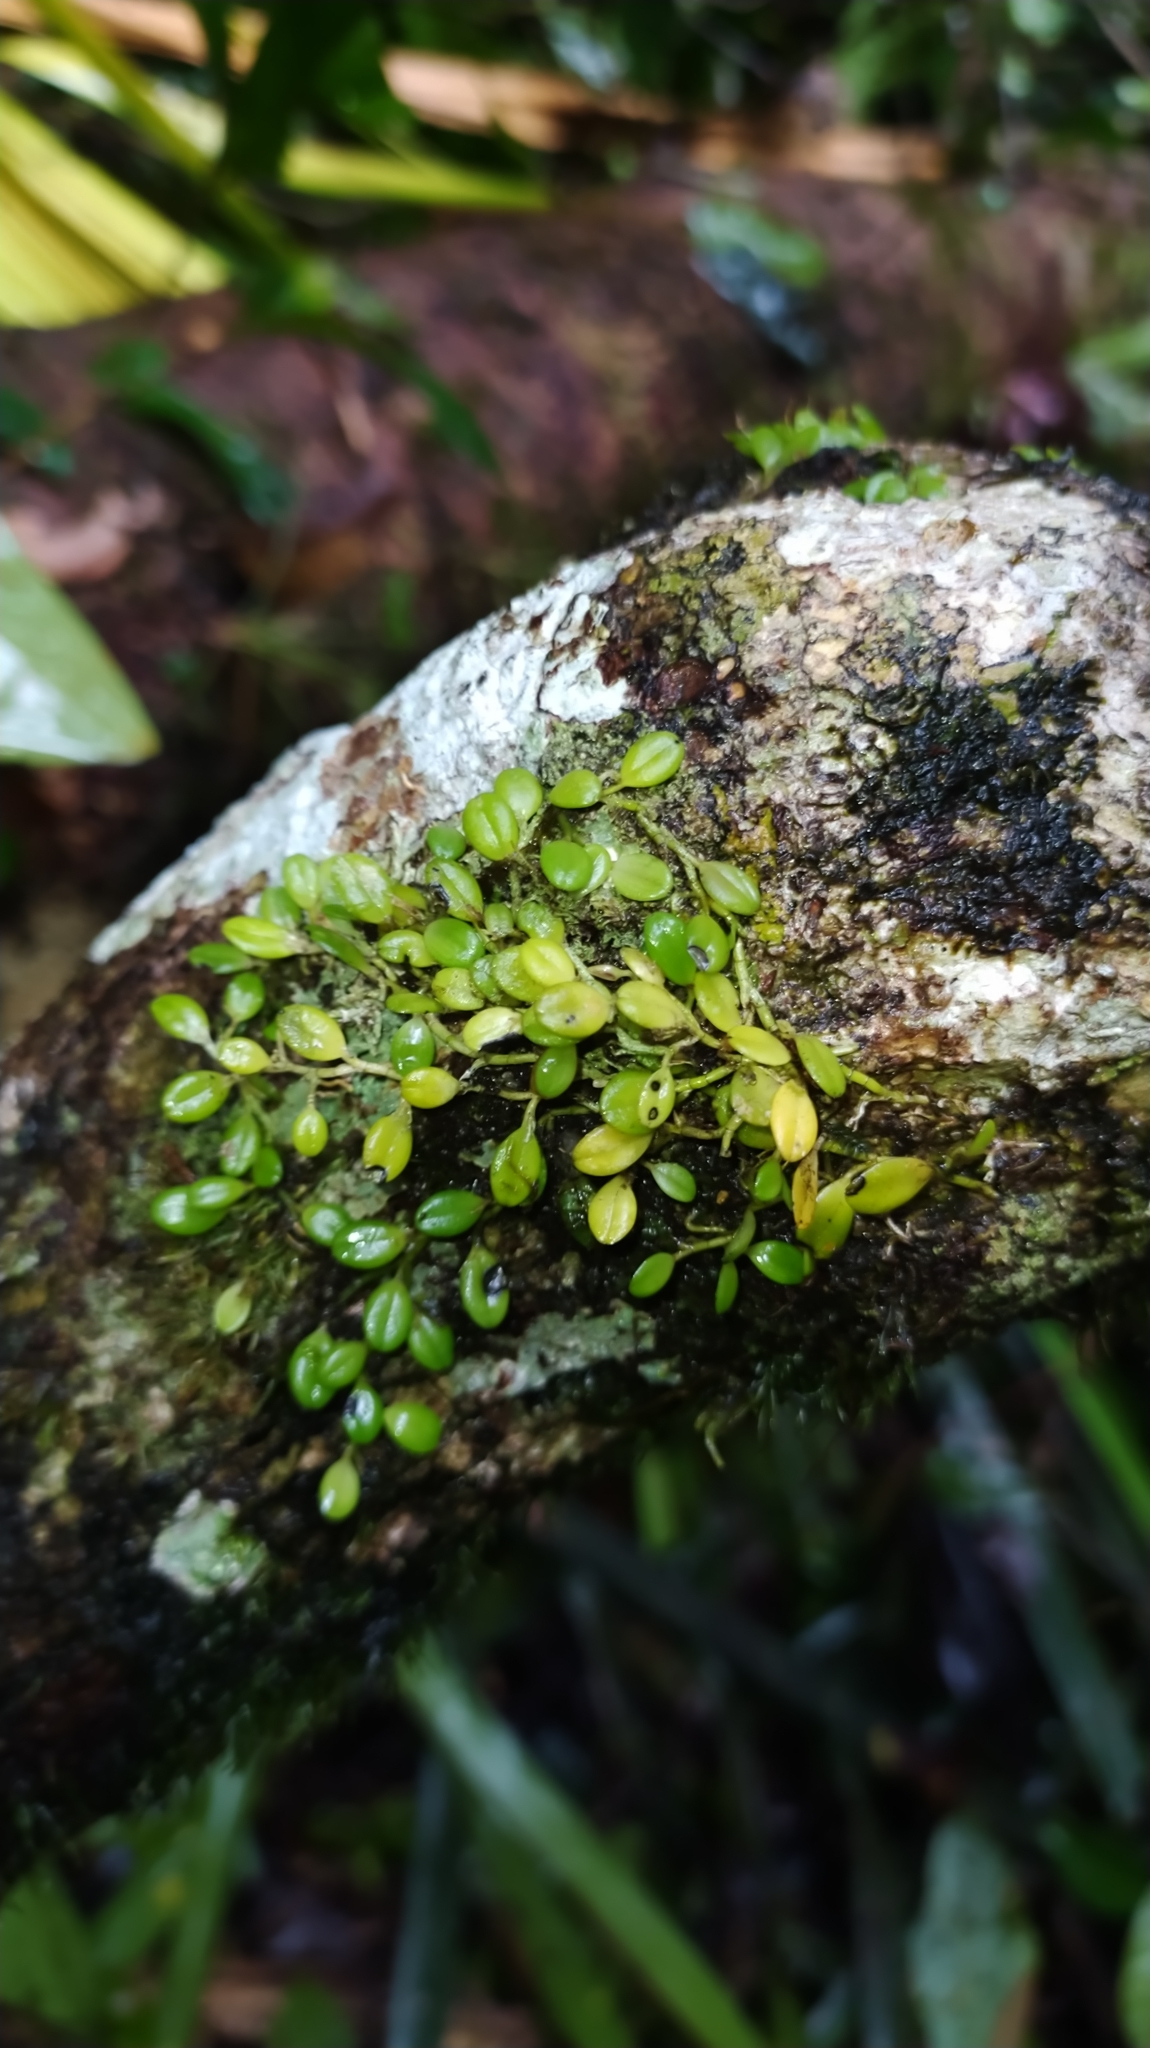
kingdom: Plantae
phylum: Tracheophyta
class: Liliopsida
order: Asparagales
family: Orchidaceae
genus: Anathallis
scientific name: Anathallis polygonoides
